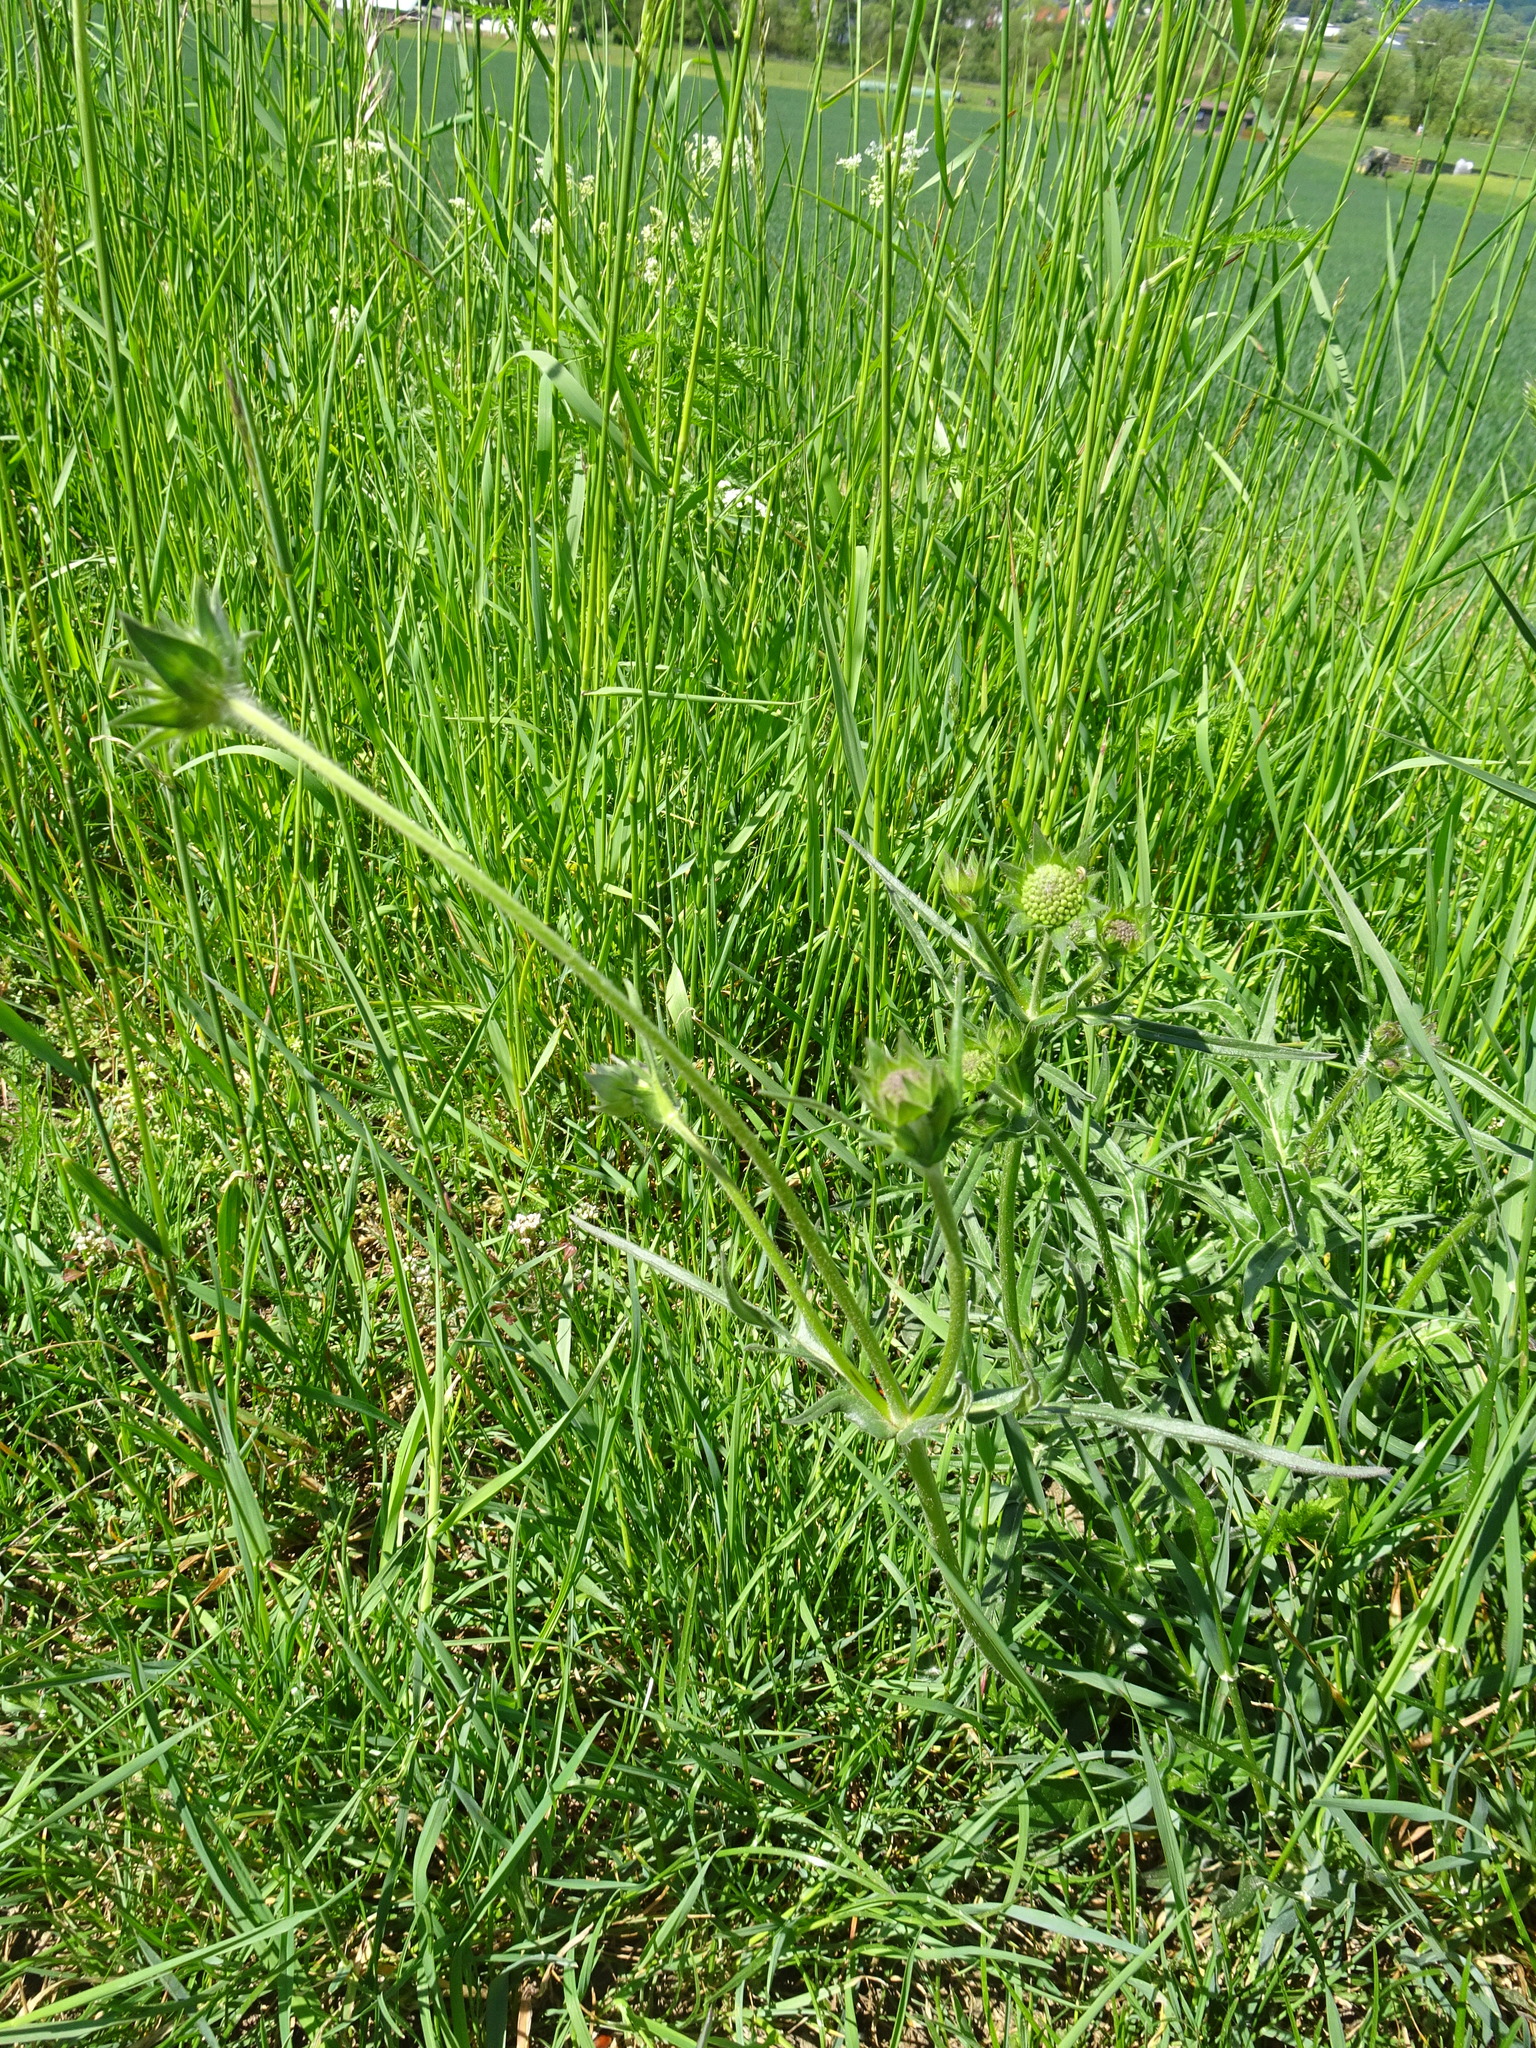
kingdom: Plantae
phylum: Tracheophyta
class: Magnoliopsida
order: Dipsacales
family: Caprifoliaceae
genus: Knautia
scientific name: Knautia arvensis
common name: Field scabiosa
